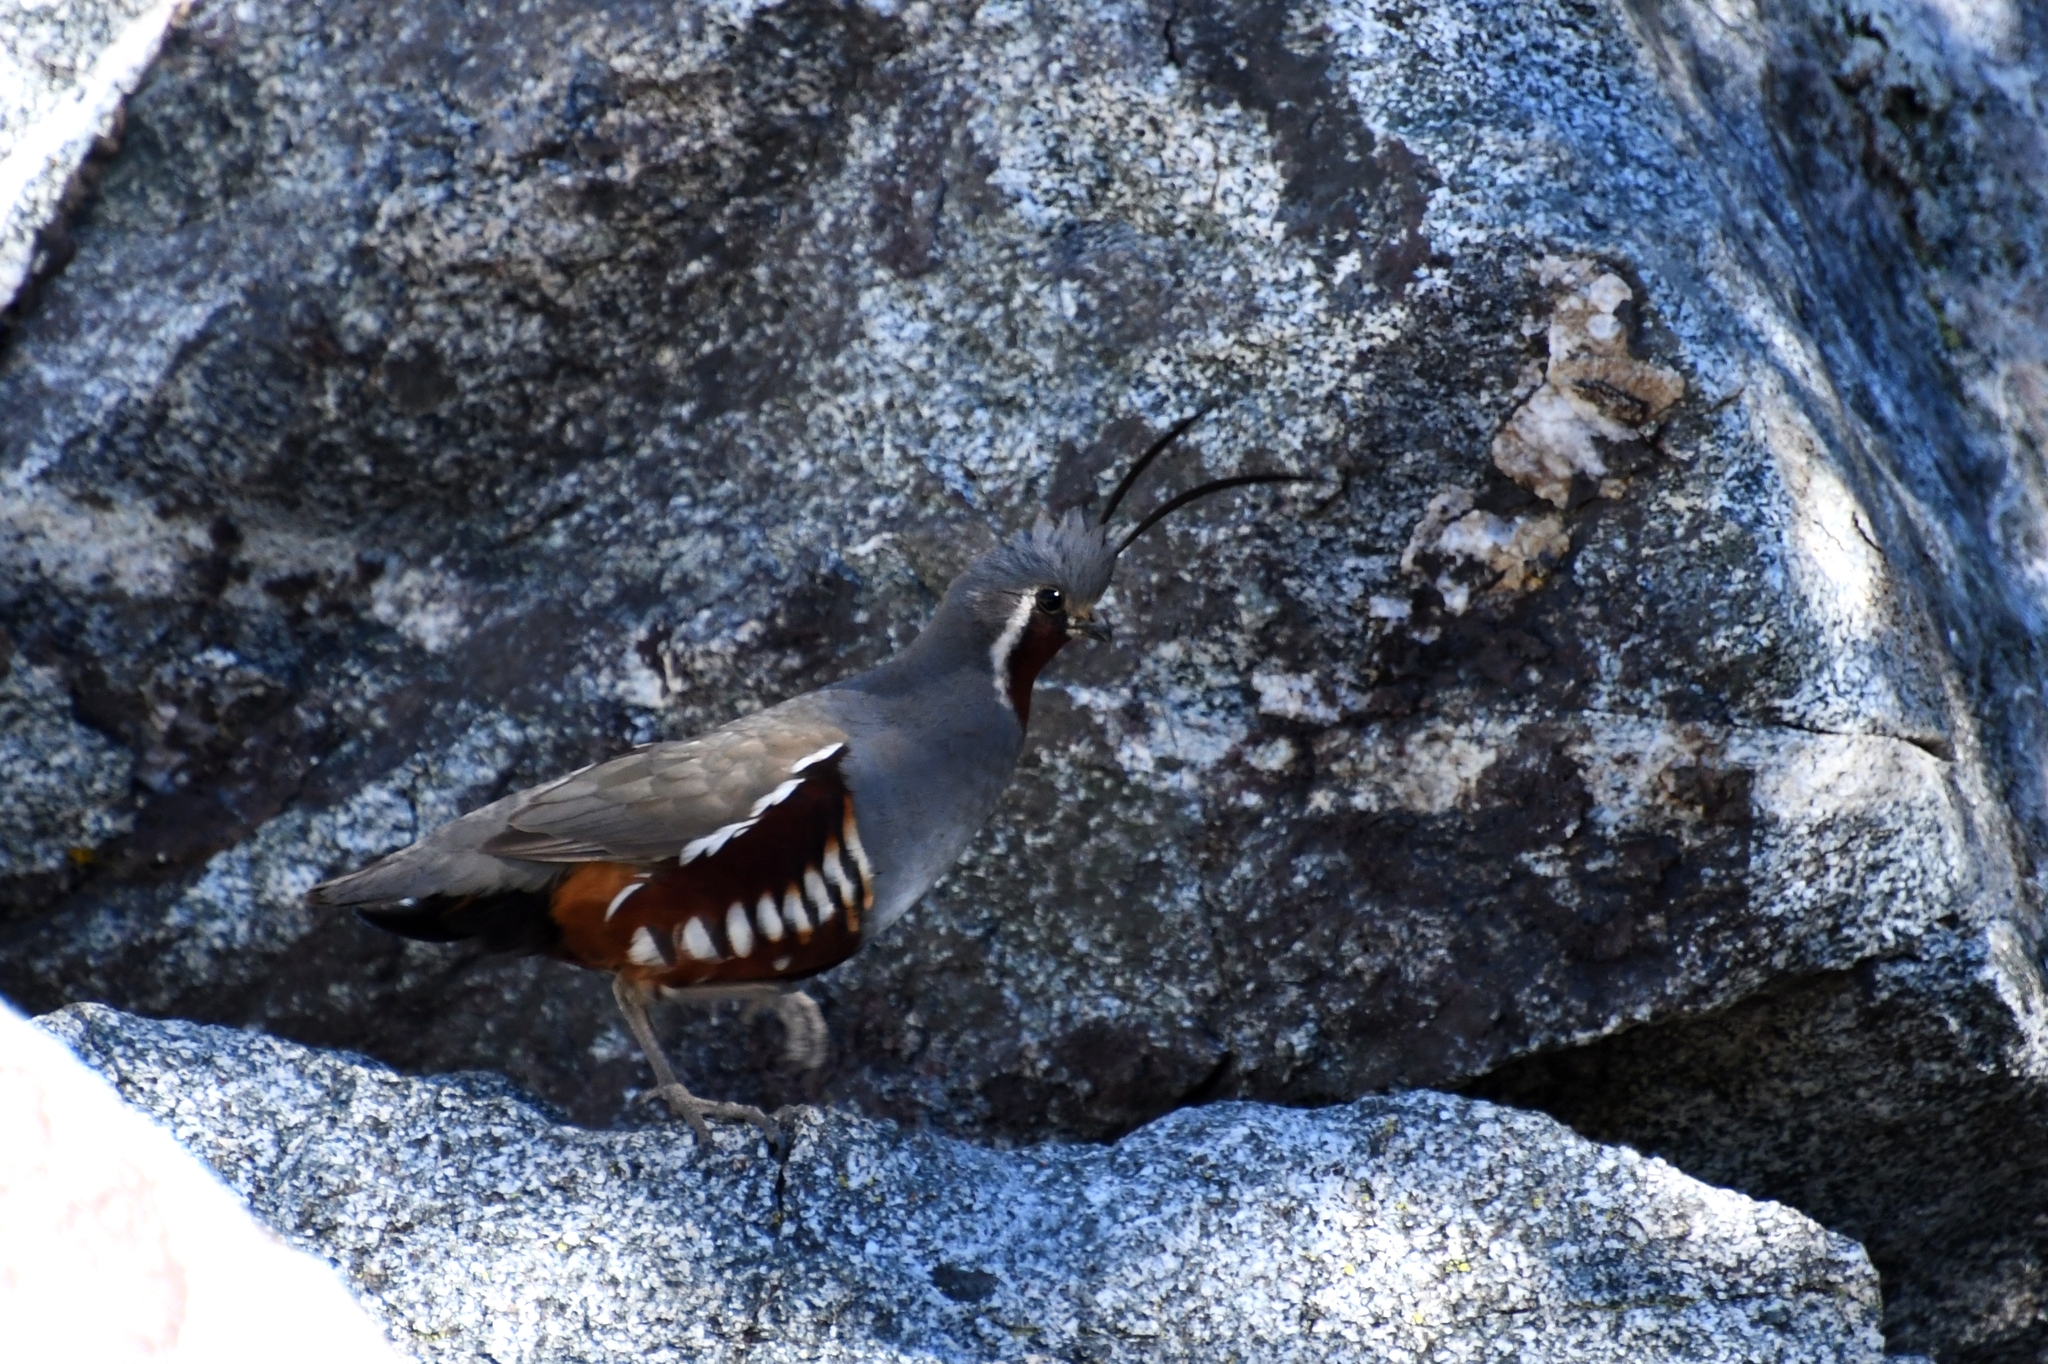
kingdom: Animalia
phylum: Chordata
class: Aves
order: Galliformes
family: Odontophoridae
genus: Oreortyx
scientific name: Oreortyx pictus
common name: Mountain quail
